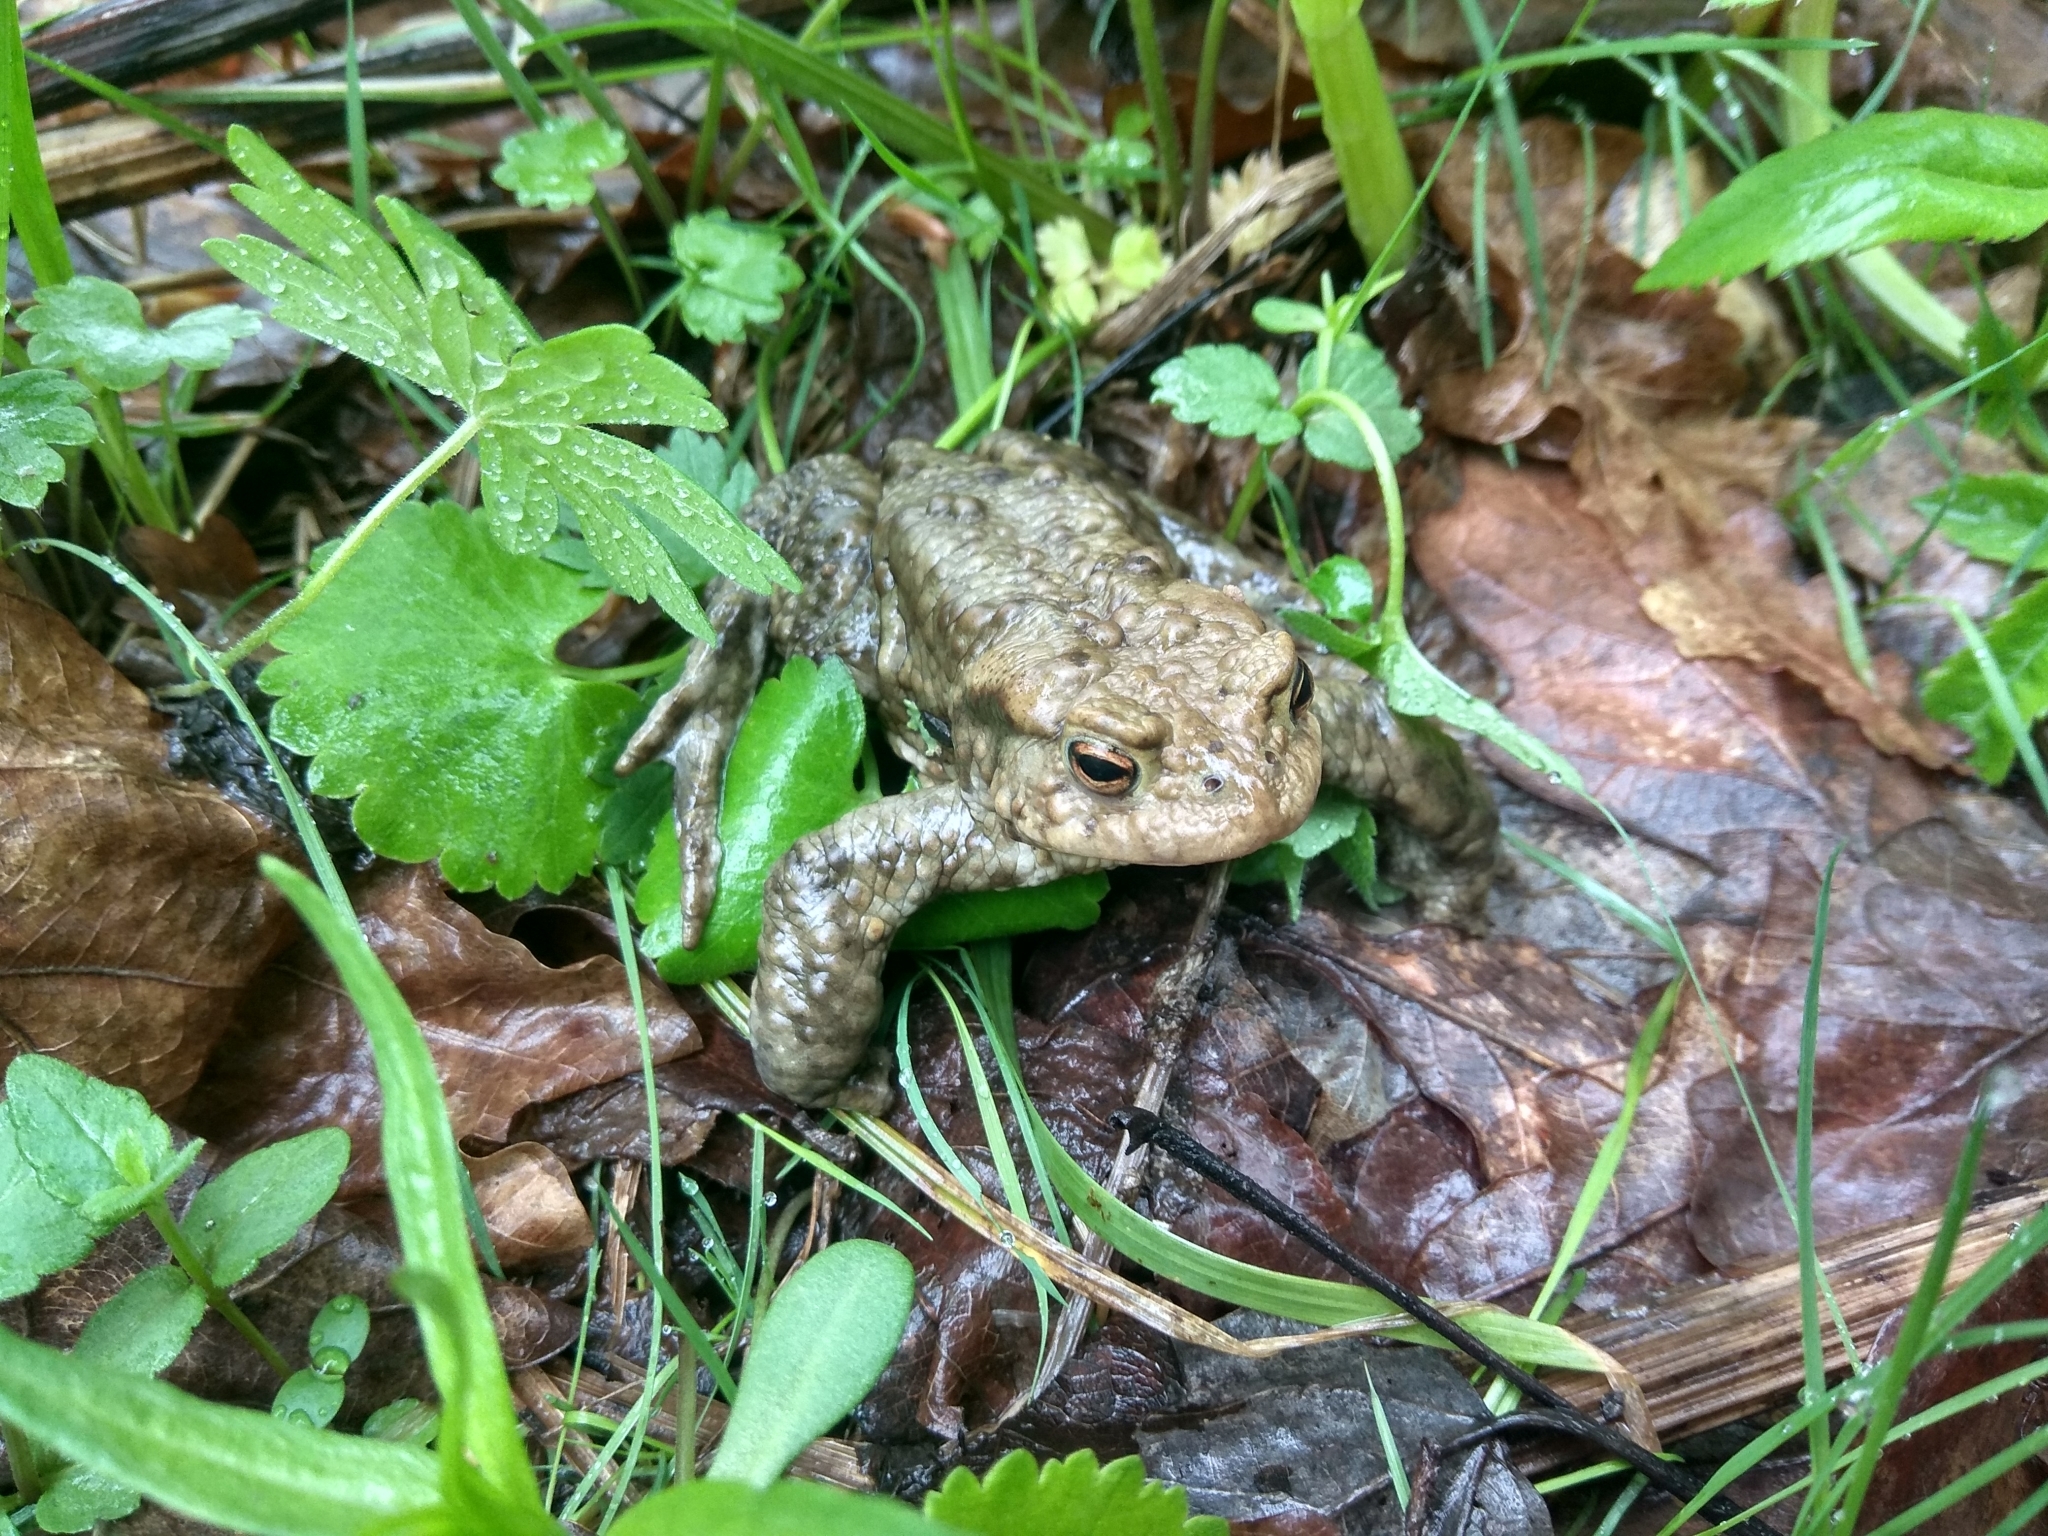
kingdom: Animalia
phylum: Chordata
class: Amphibia
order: Anura
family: Bufonidae
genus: Bufo
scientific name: Bufo bufo
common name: Common toad
